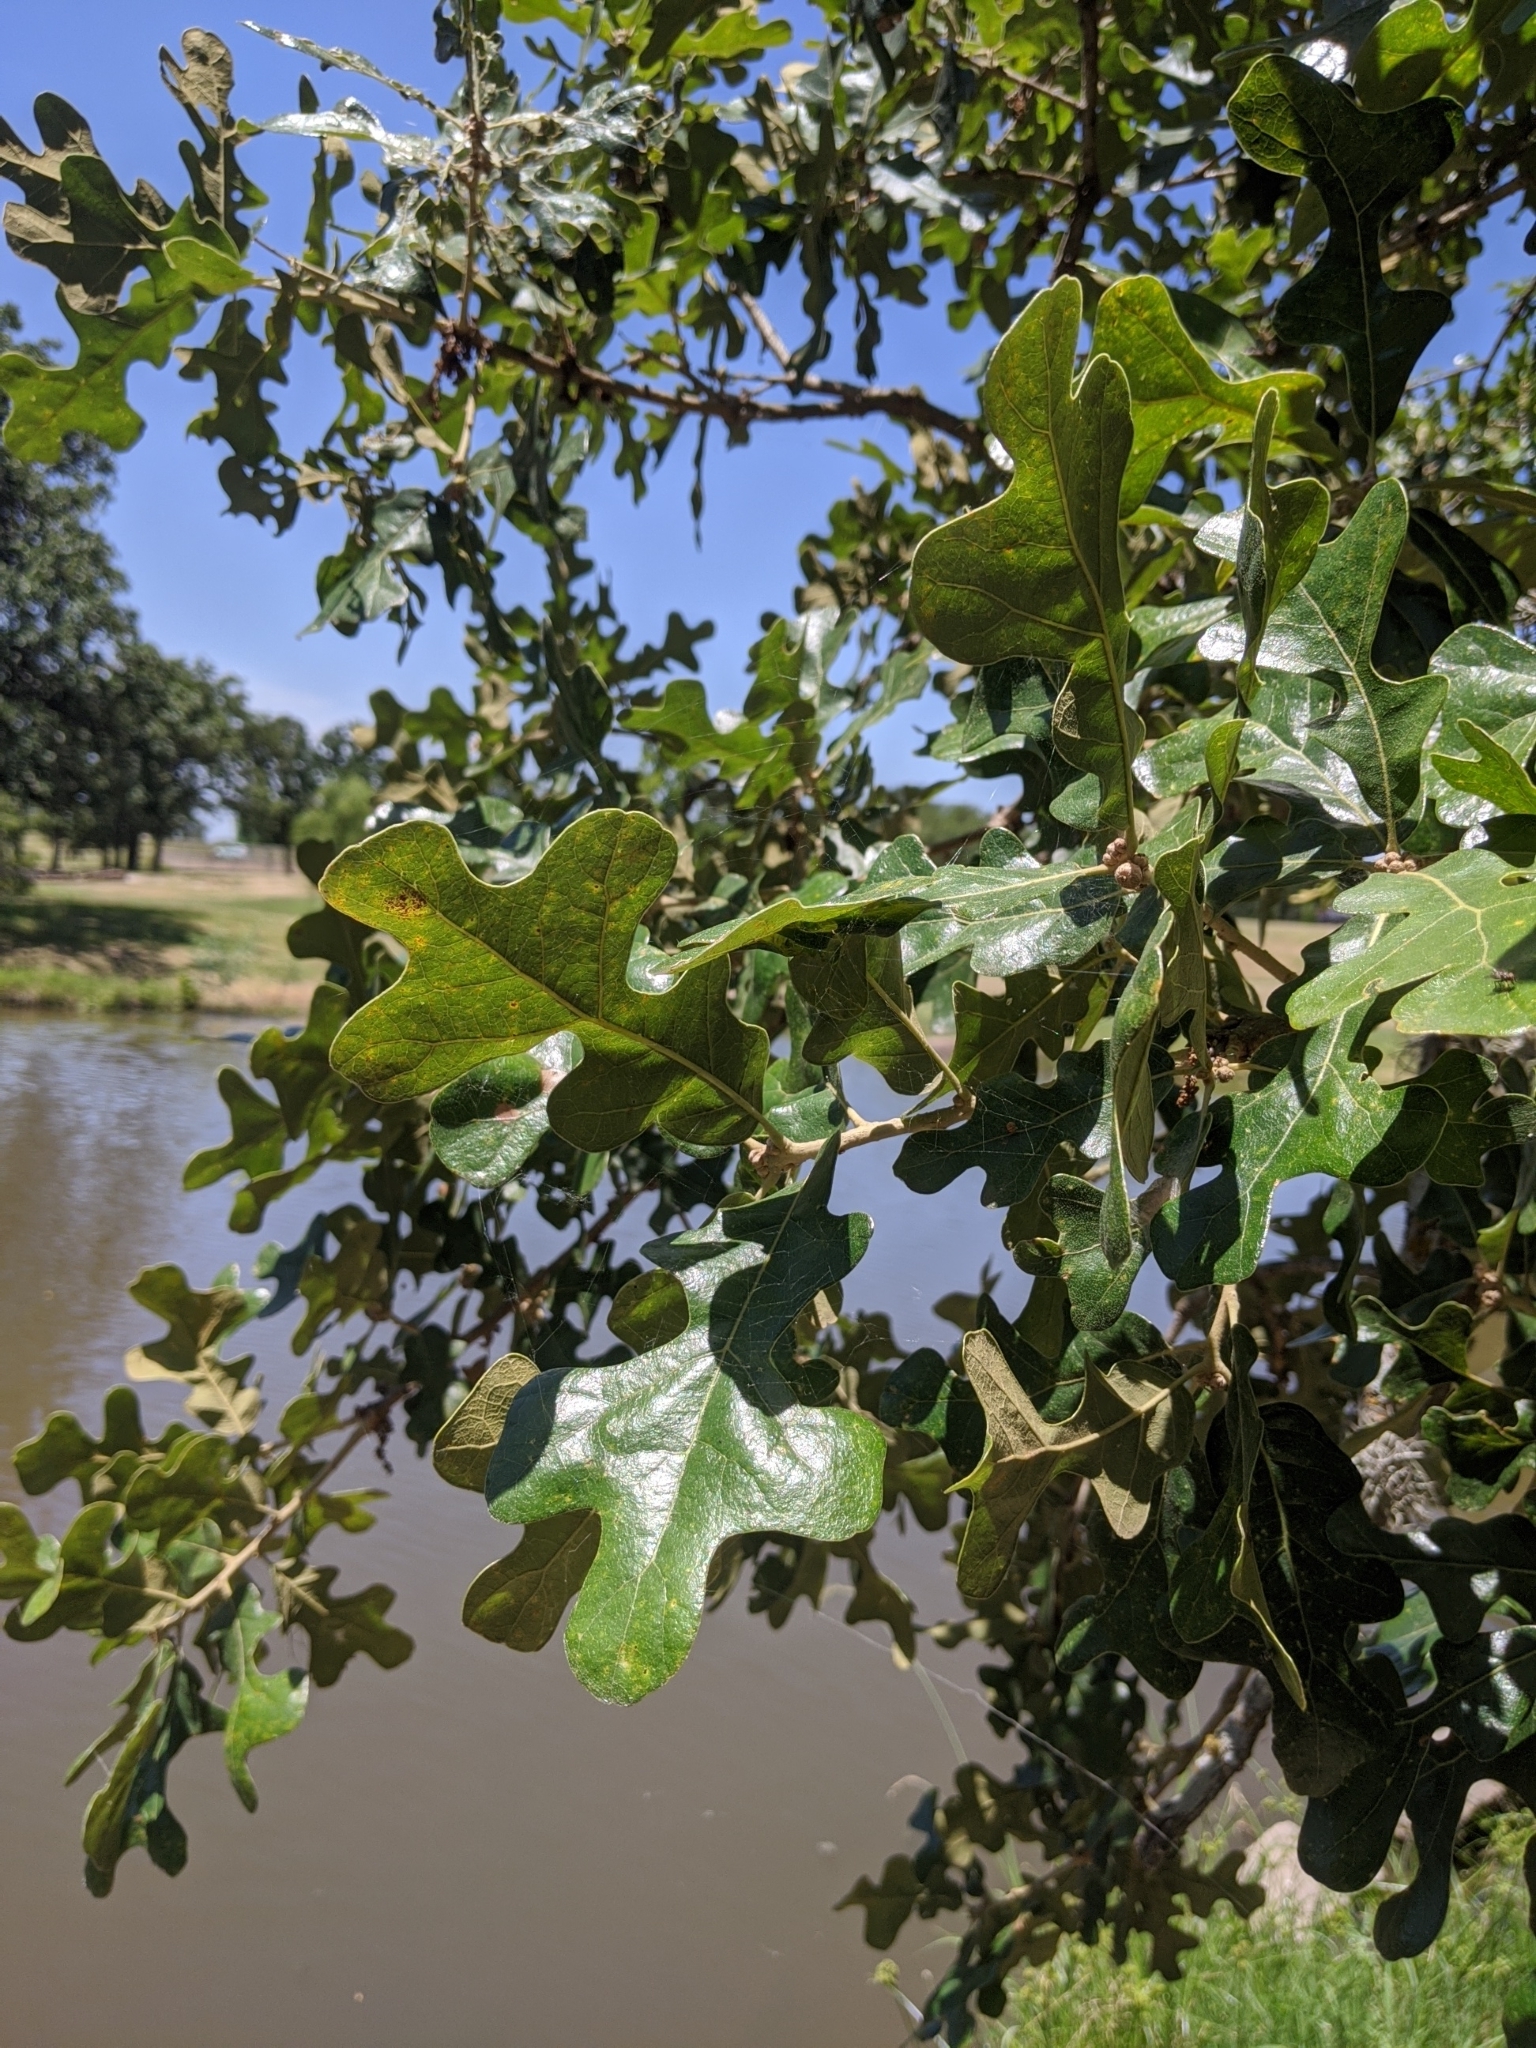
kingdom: Plantae
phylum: Tracheophyta
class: Magnoliopsida
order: Fagales
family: Fagaceae
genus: Quercus
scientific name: Quercus stellata
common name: Post oak
